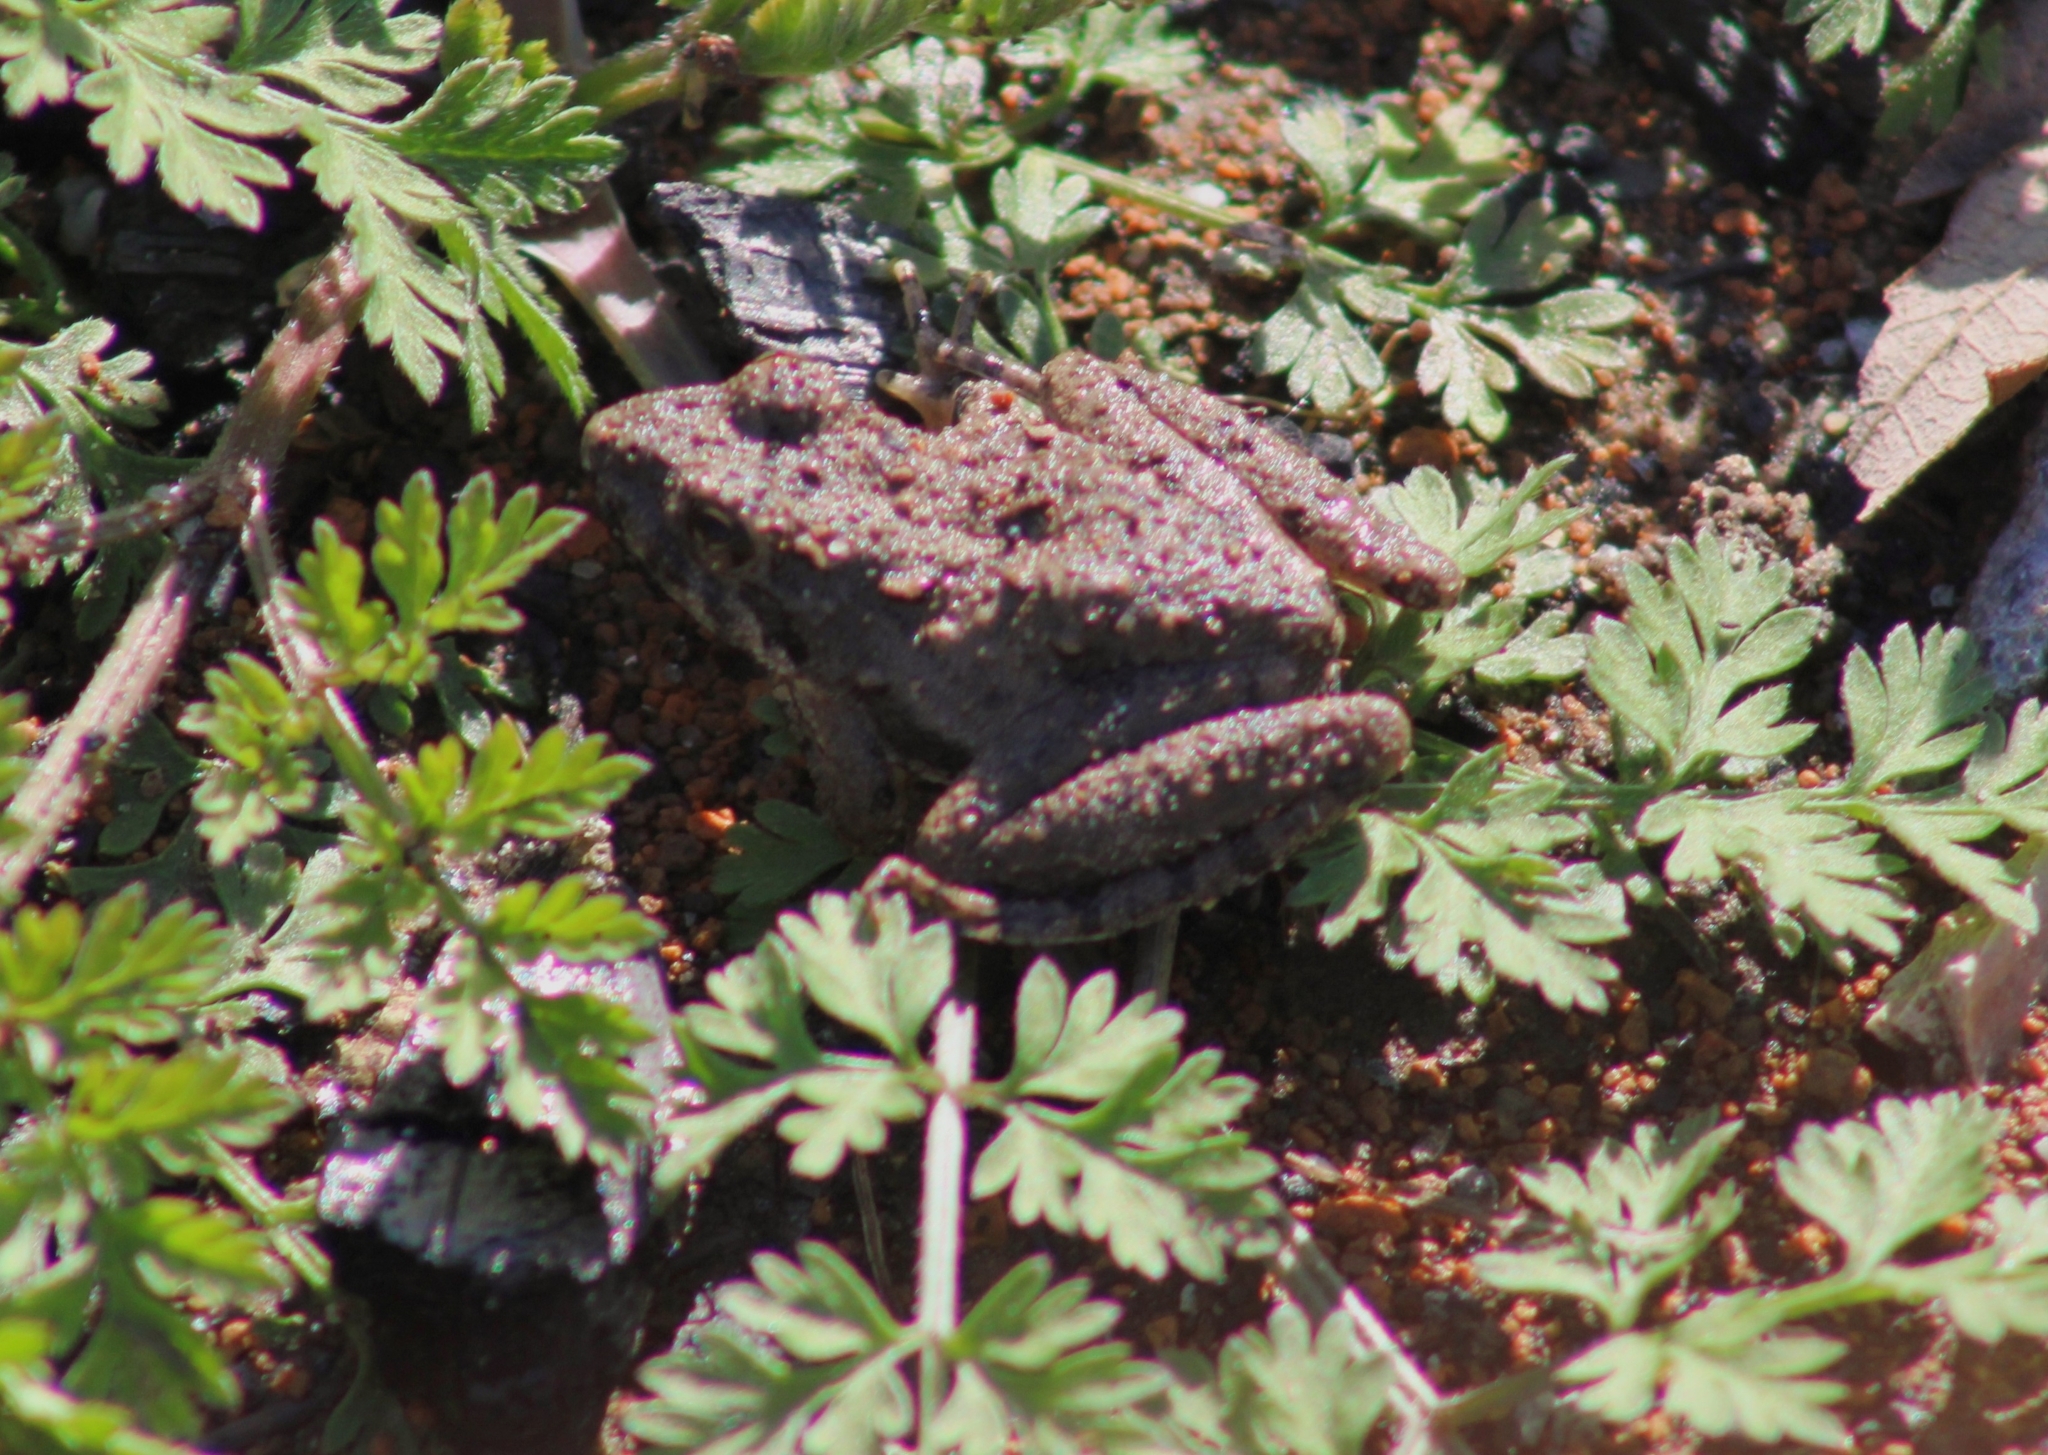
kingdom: Animalia
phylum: Chordata
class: Amphibia
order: Anura
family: Hylidae
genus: Acris
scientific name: Acris blanchardi
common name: Blanchard's cricket frog
